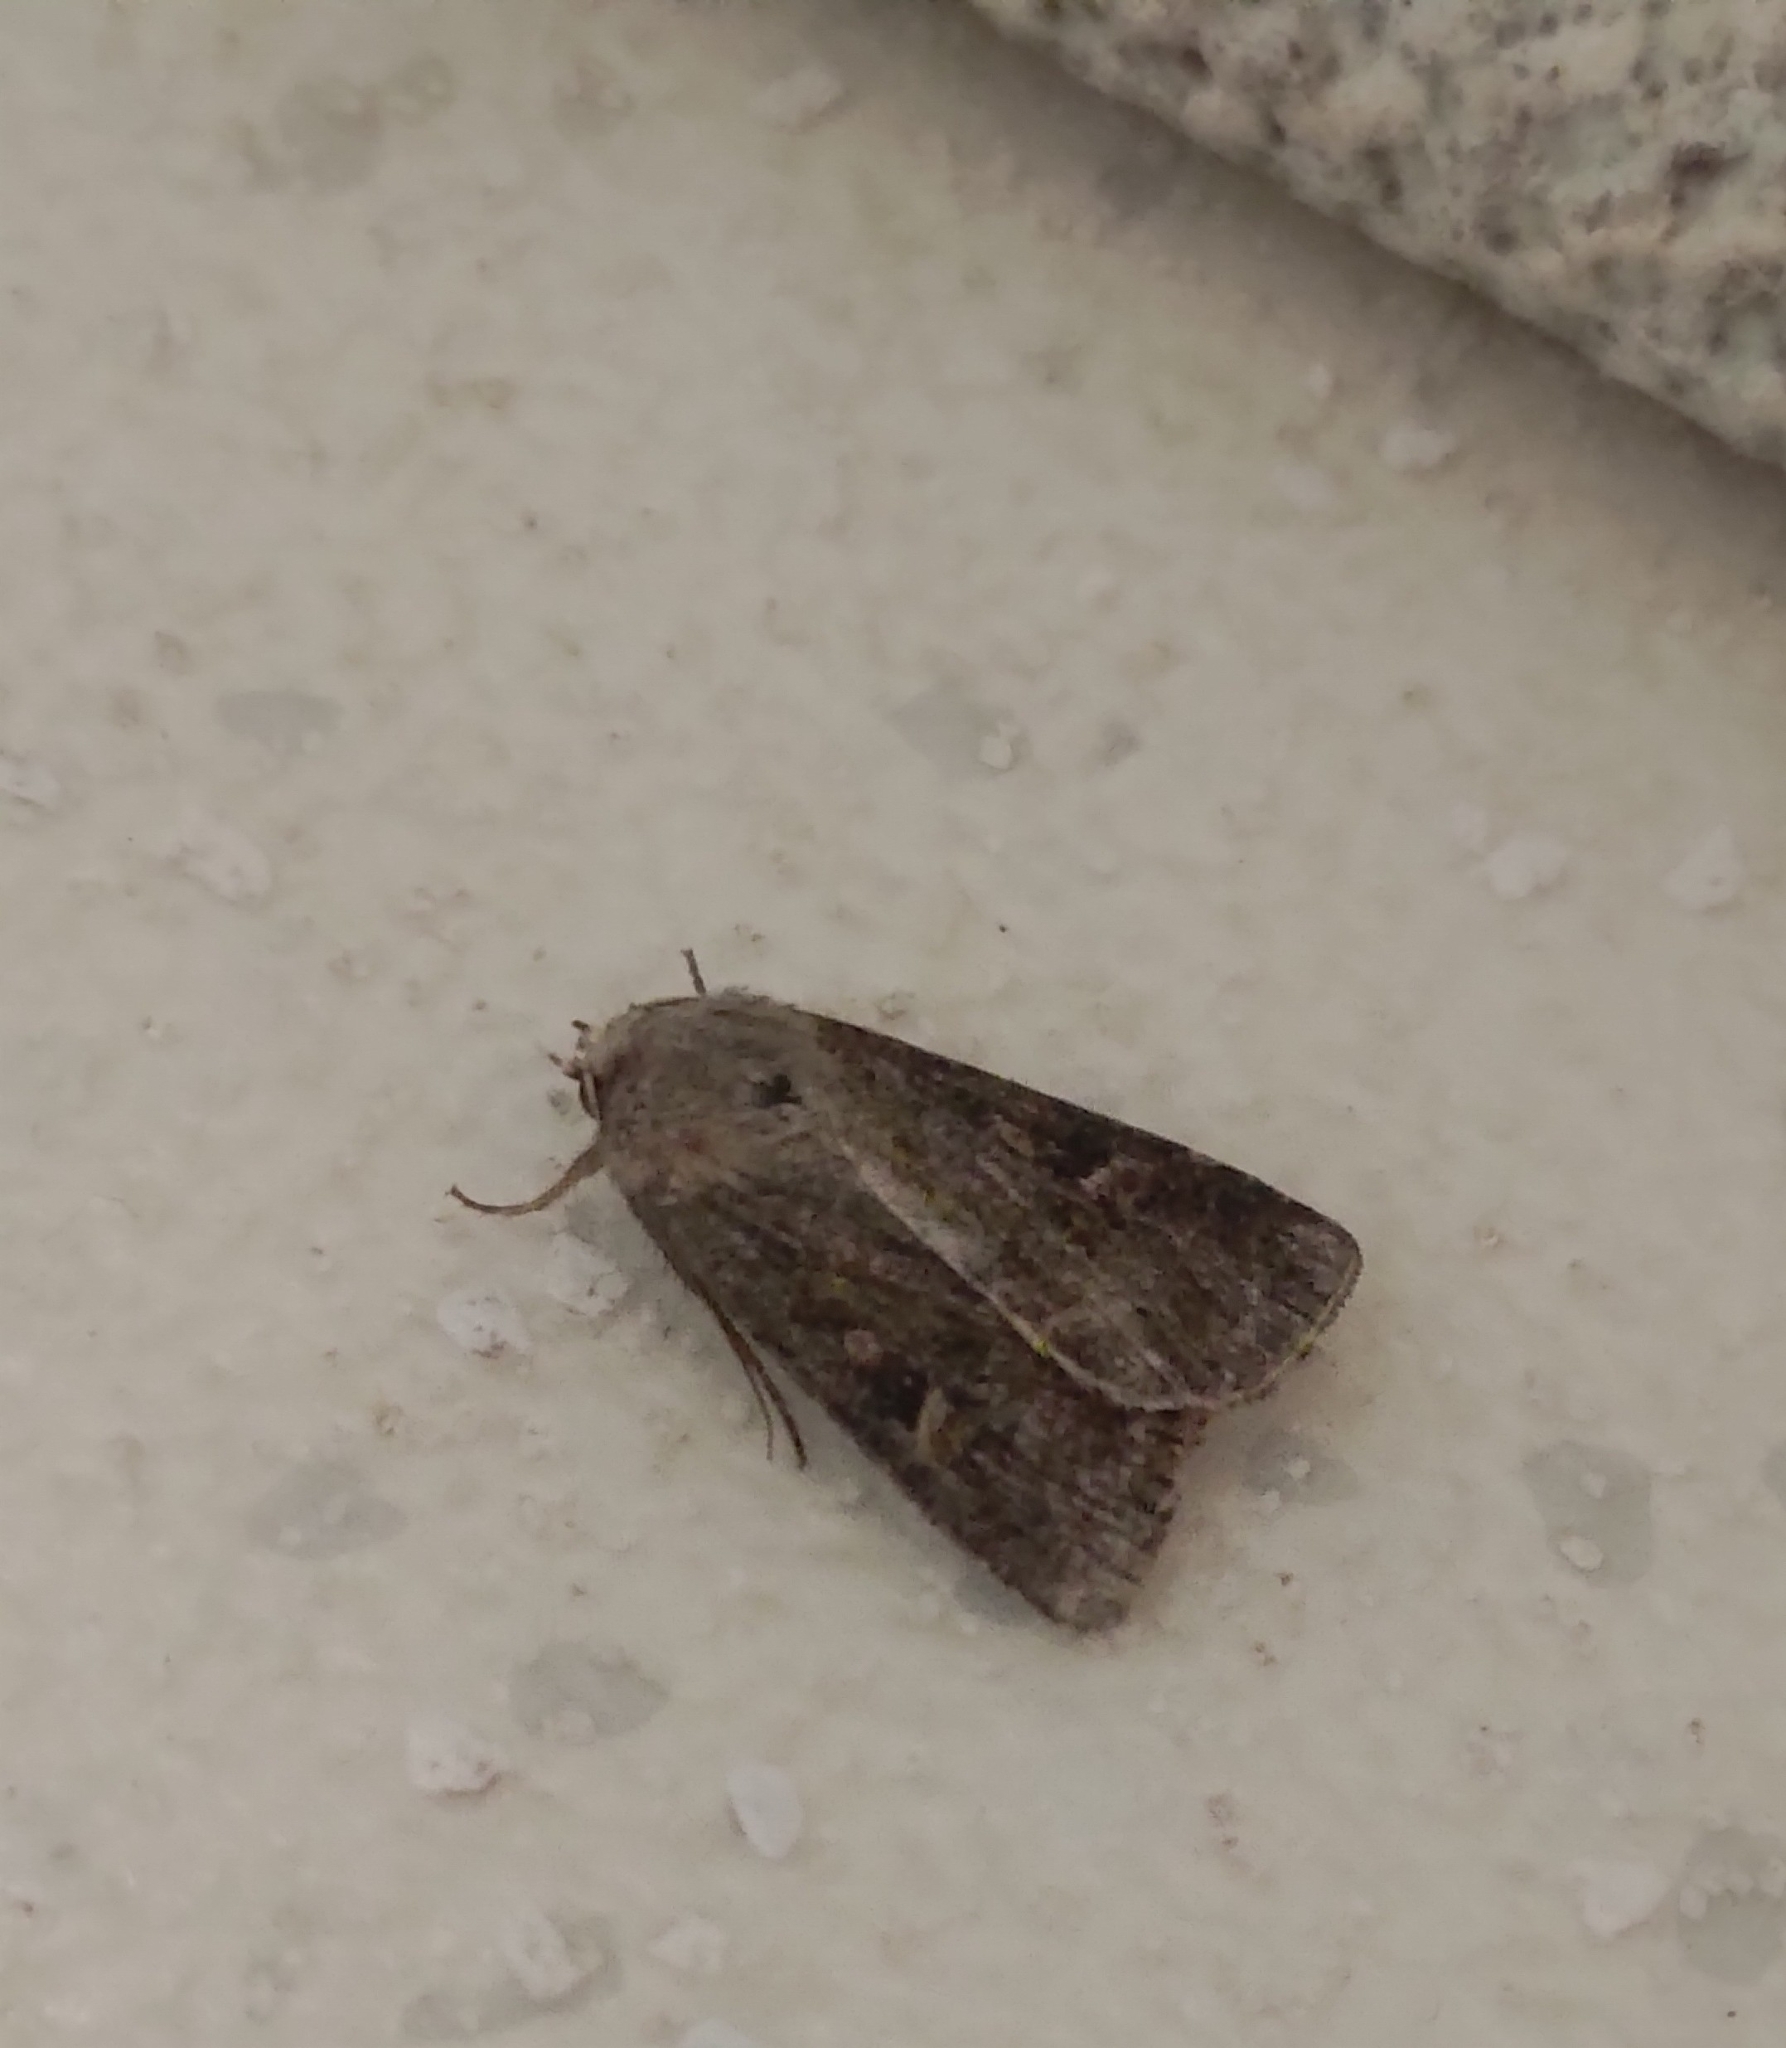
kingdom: Animalia
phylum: Arthropoda
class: Insecta
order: Lepidoptera
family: Noctuidae
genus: Xestia
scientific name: Xestia xanthographa
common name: Square-spot rustic
